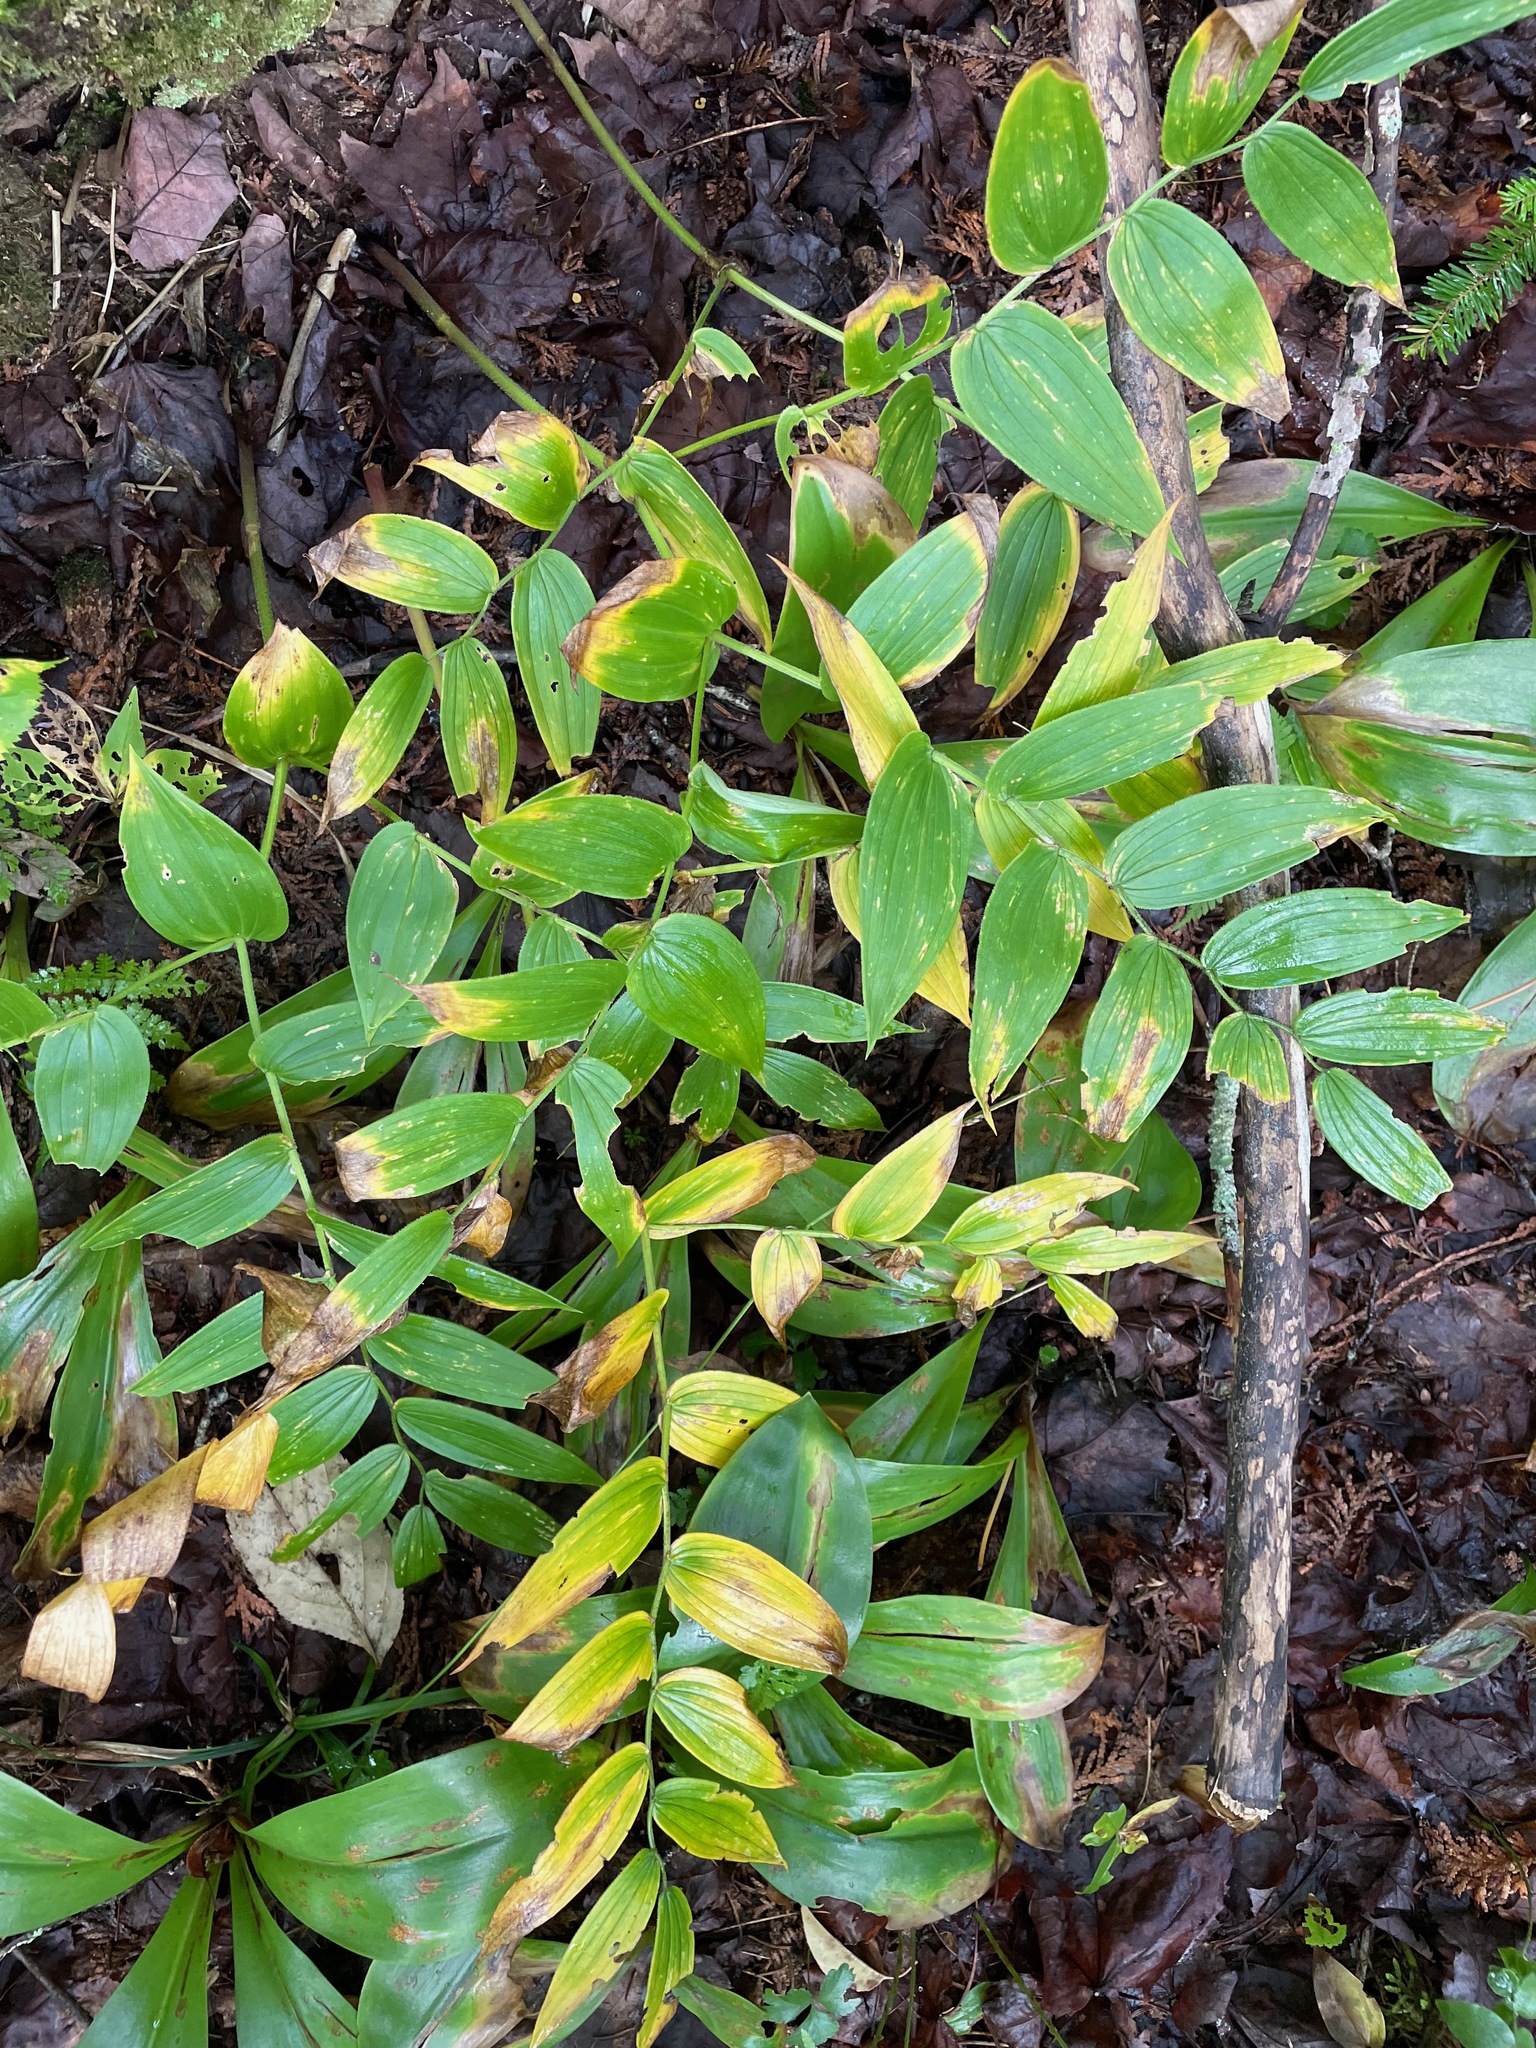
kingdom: Plantae
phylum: Tracheophyta
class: Liliopsida
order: Liliales
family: Liliaceae
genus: Streptopus
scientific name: Streptopus lanceolatus
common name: Rose mandarin
